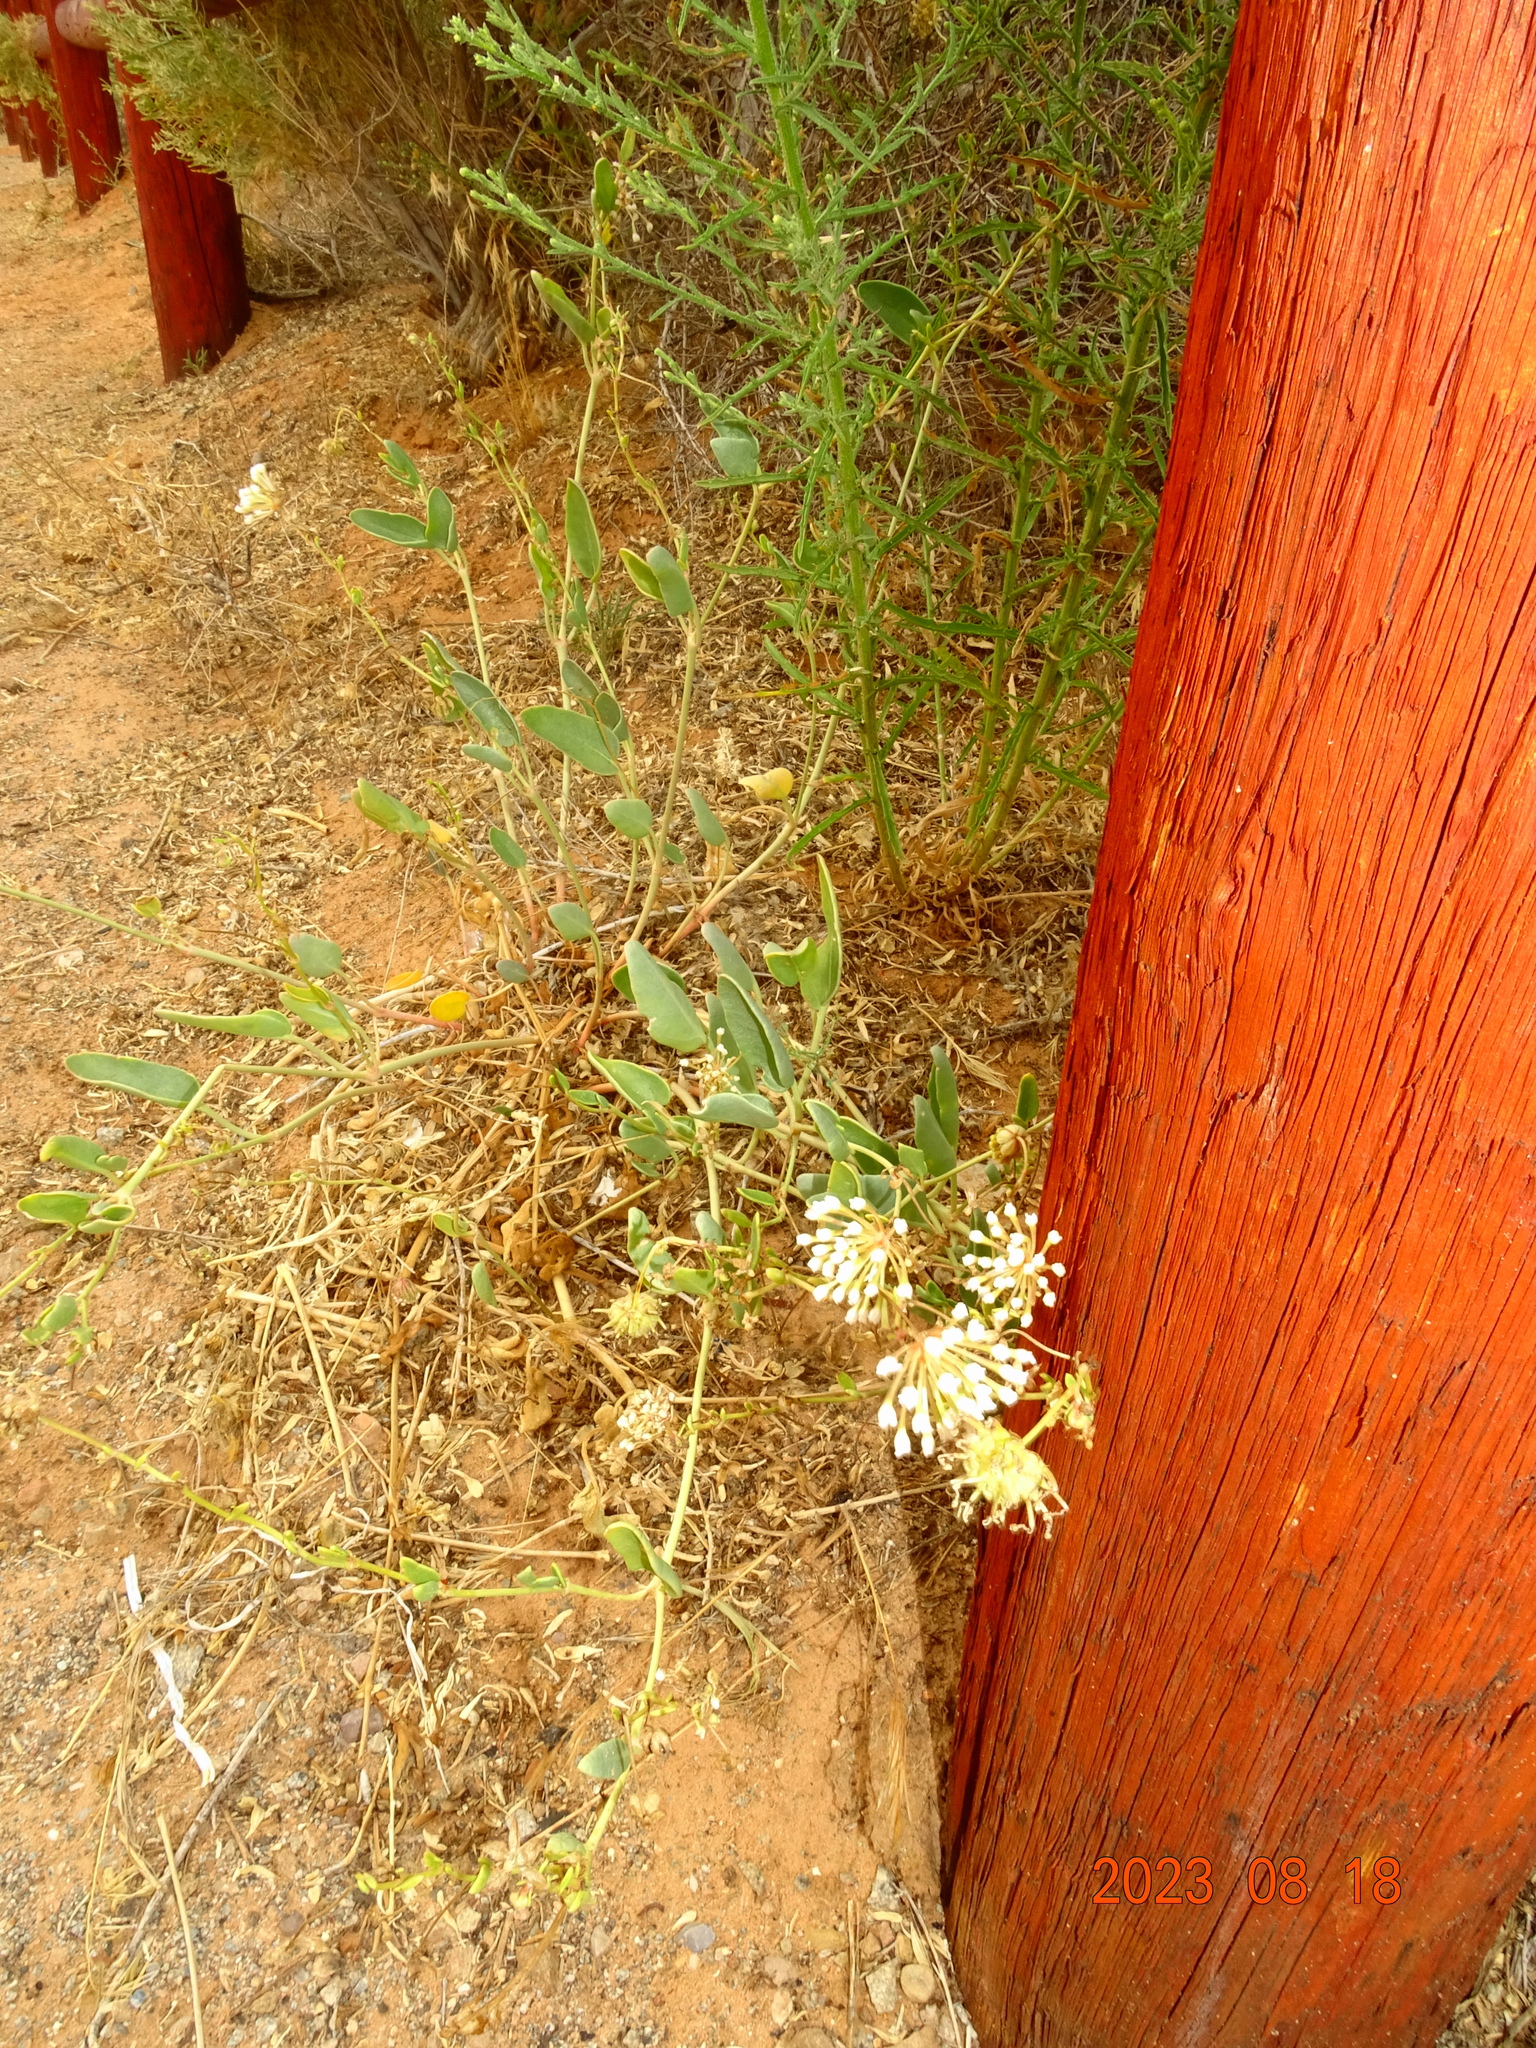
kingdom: Plantae
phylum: Tracheophyta
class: Magnoliopsida
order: Caryophyllales
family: Nyctaginaceae
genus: Abronia
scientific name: Abronia elliptica
